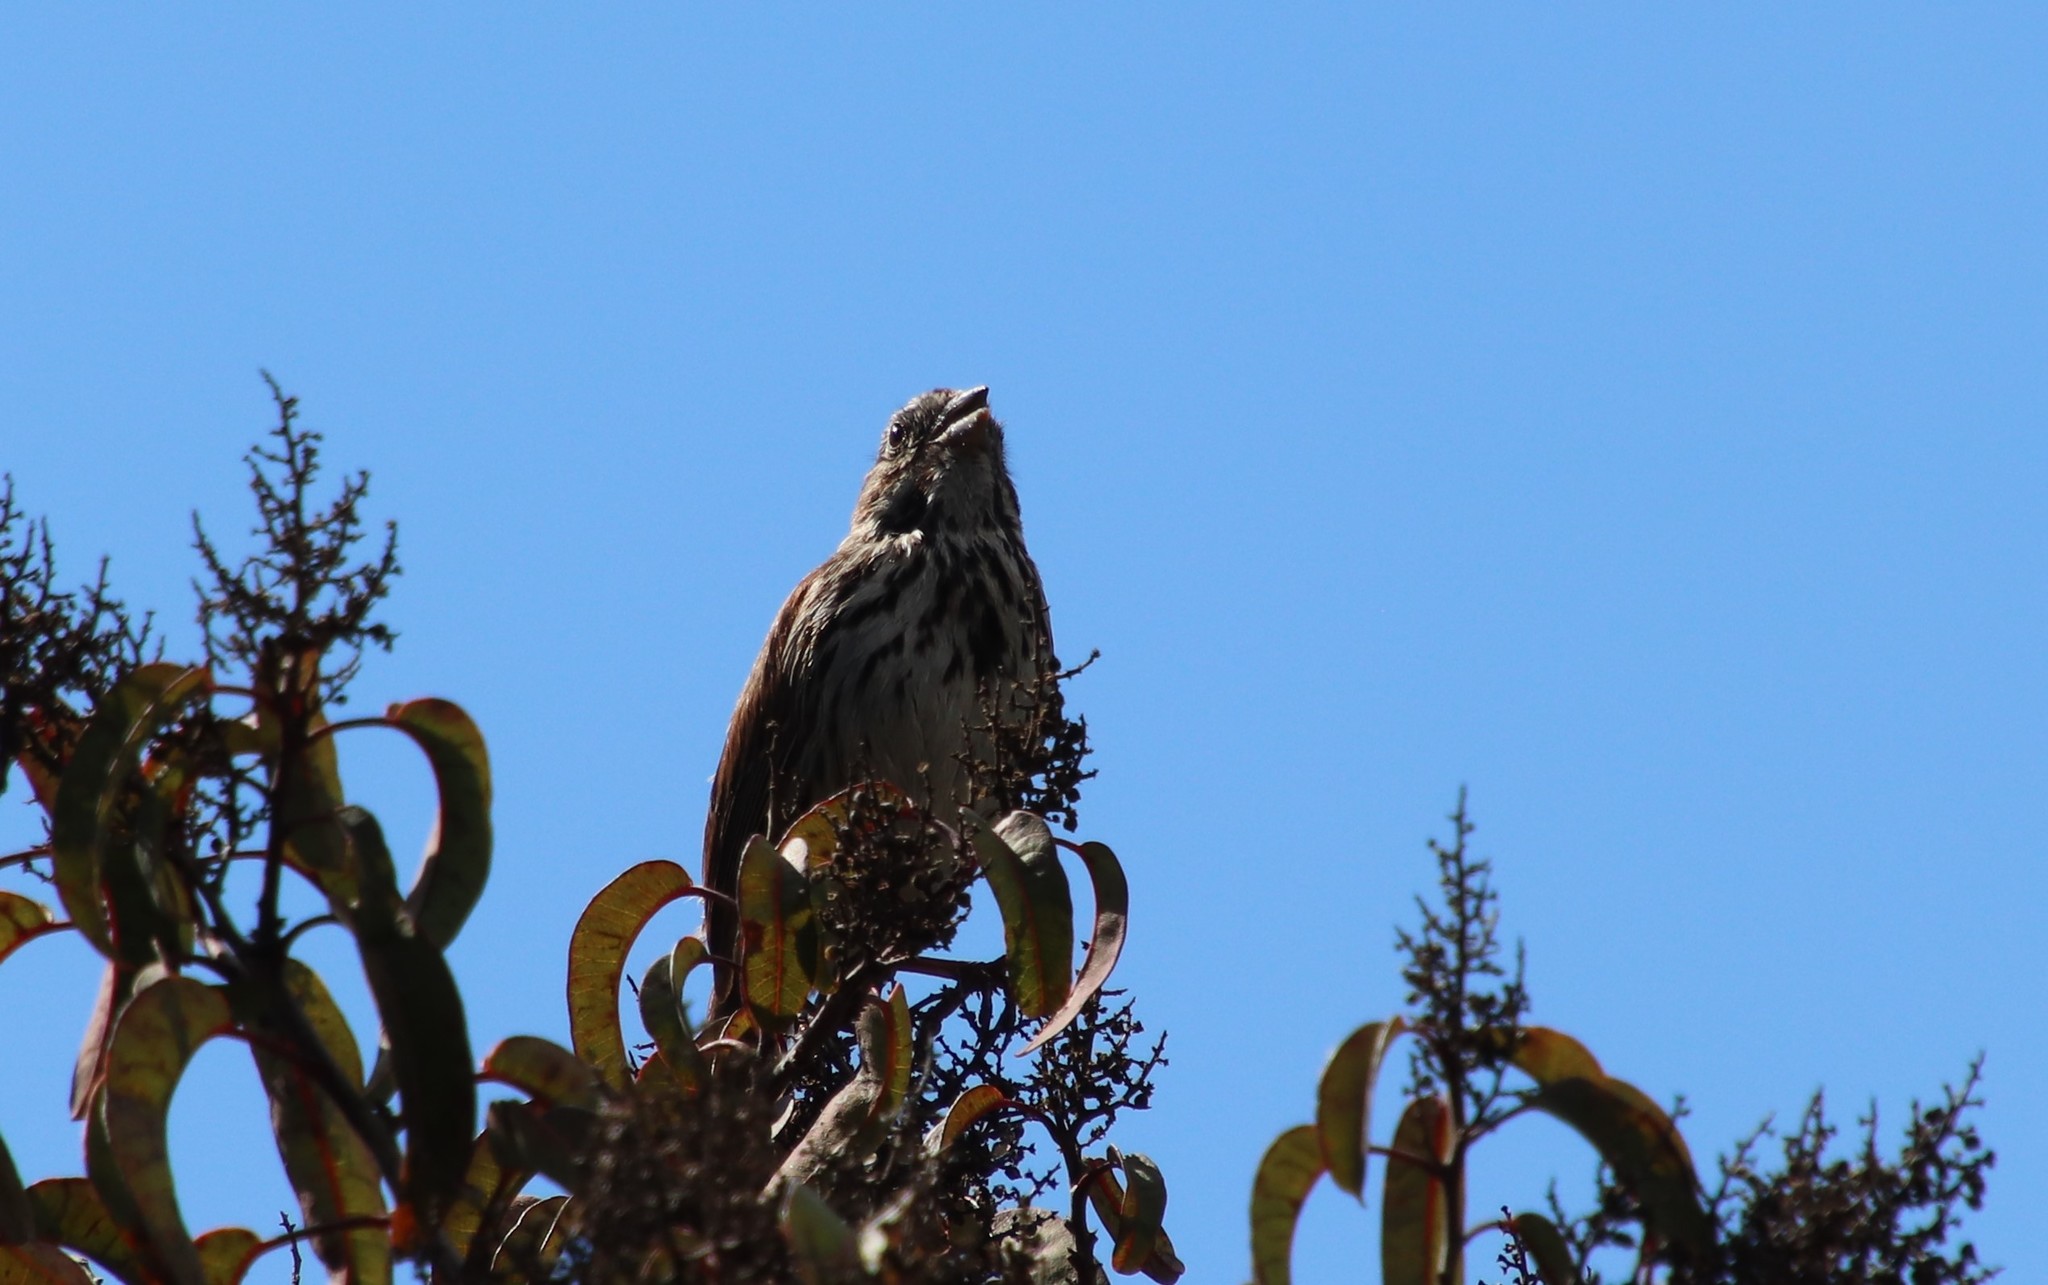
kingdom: Animalia
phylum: Chordata
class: Aves
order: Passeriformes
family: Passerellidae
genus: Melospiza
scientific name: Melospiza melodia
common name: Song sparrow
